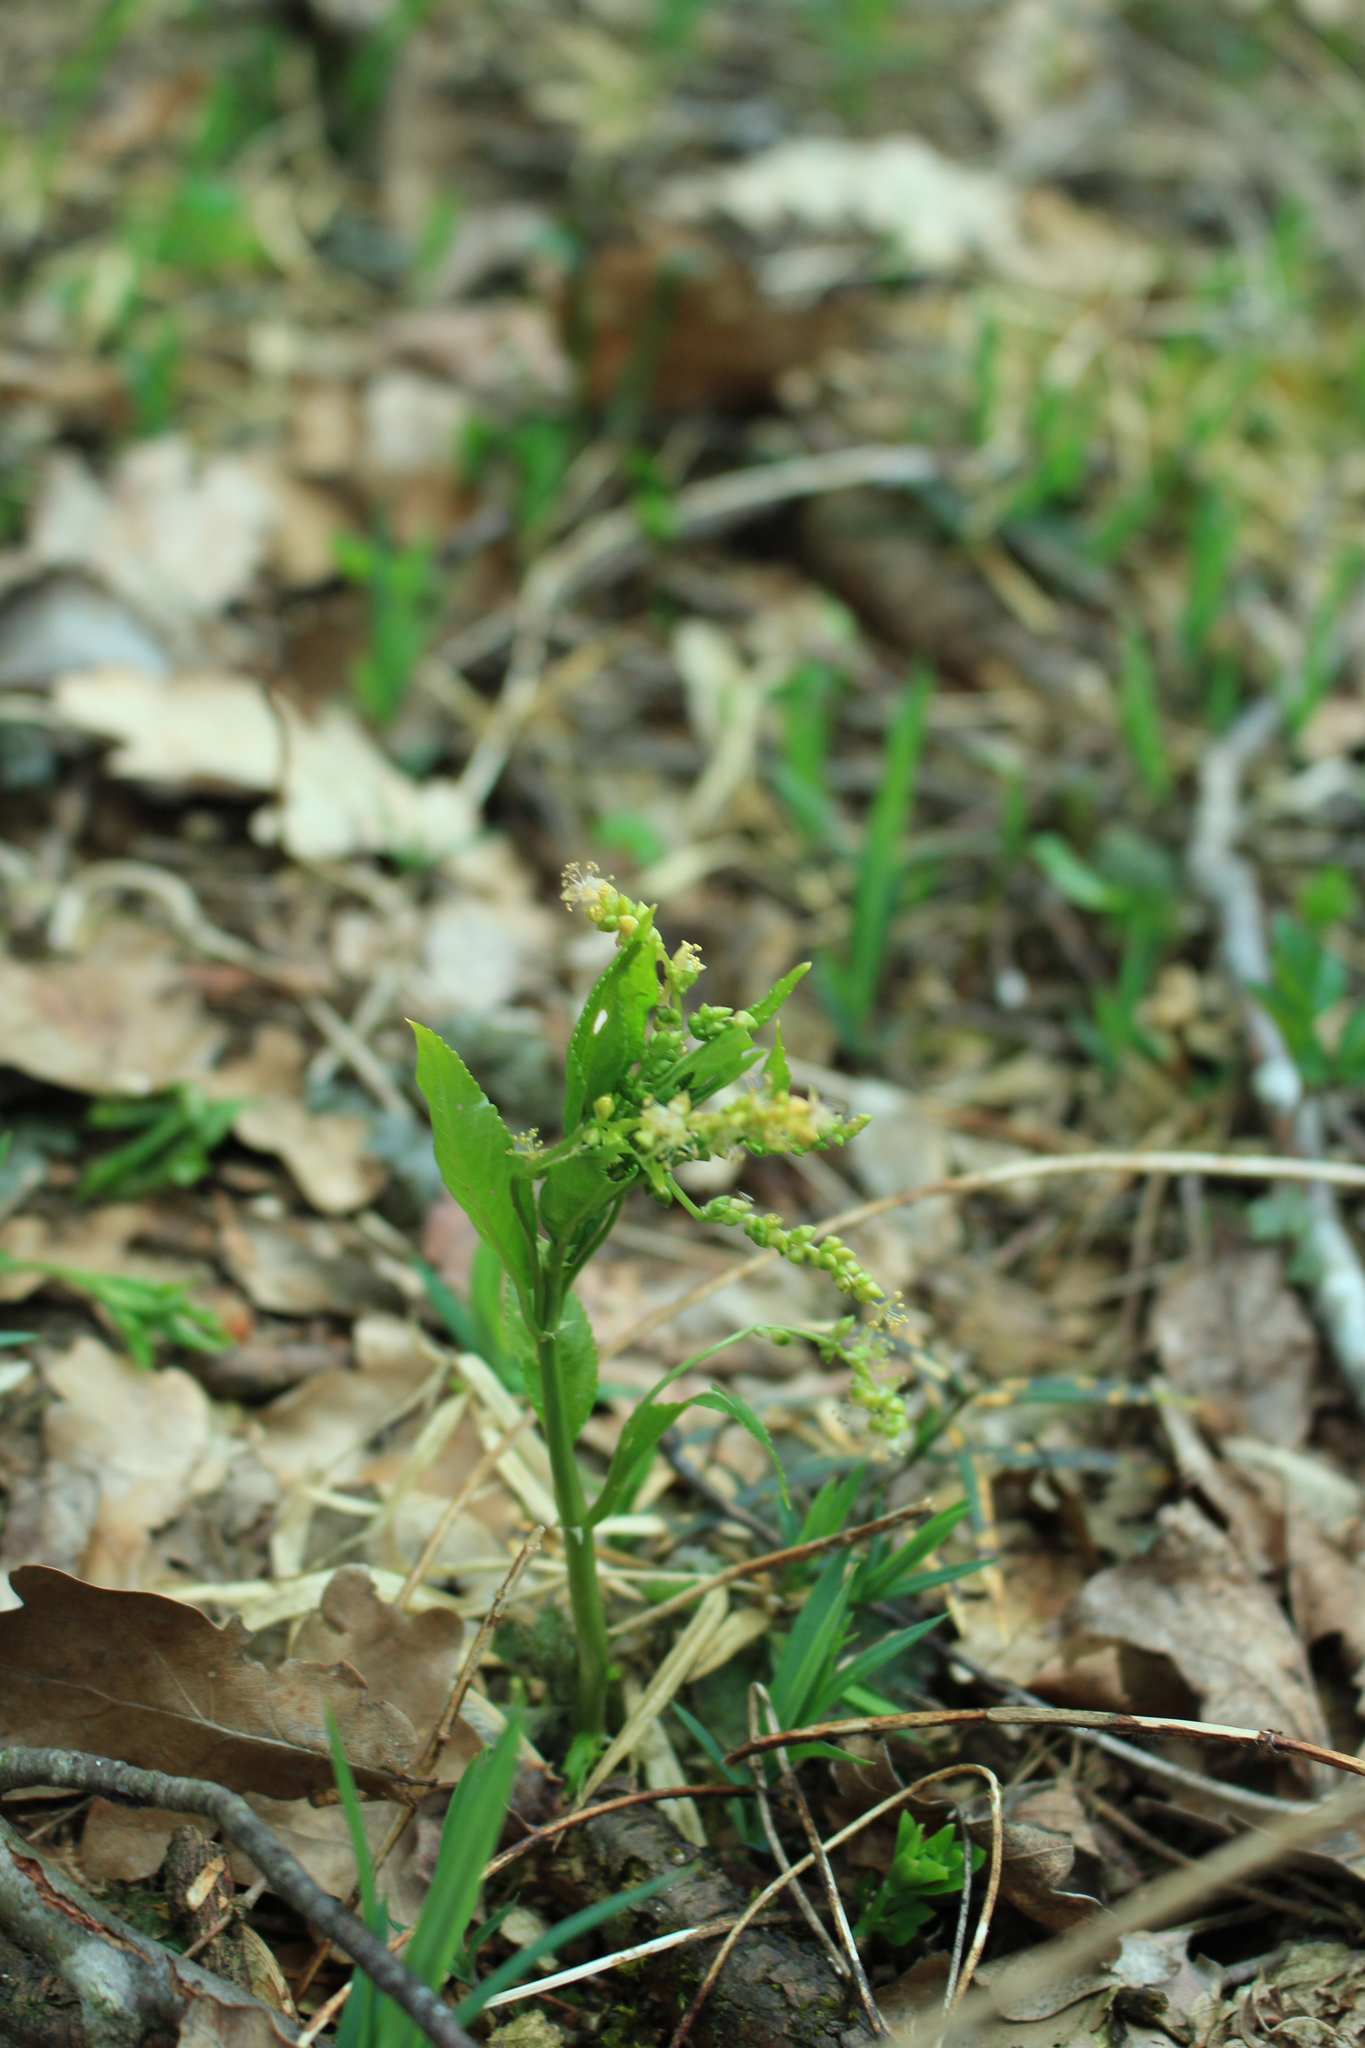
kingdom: Plantae
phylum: Tracheophyta
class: Magnoliopsida
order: Malpighiales
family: Euphorbiaceae
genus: Mercurialis
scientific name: Mercurialis perennis
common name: Dog mercury
